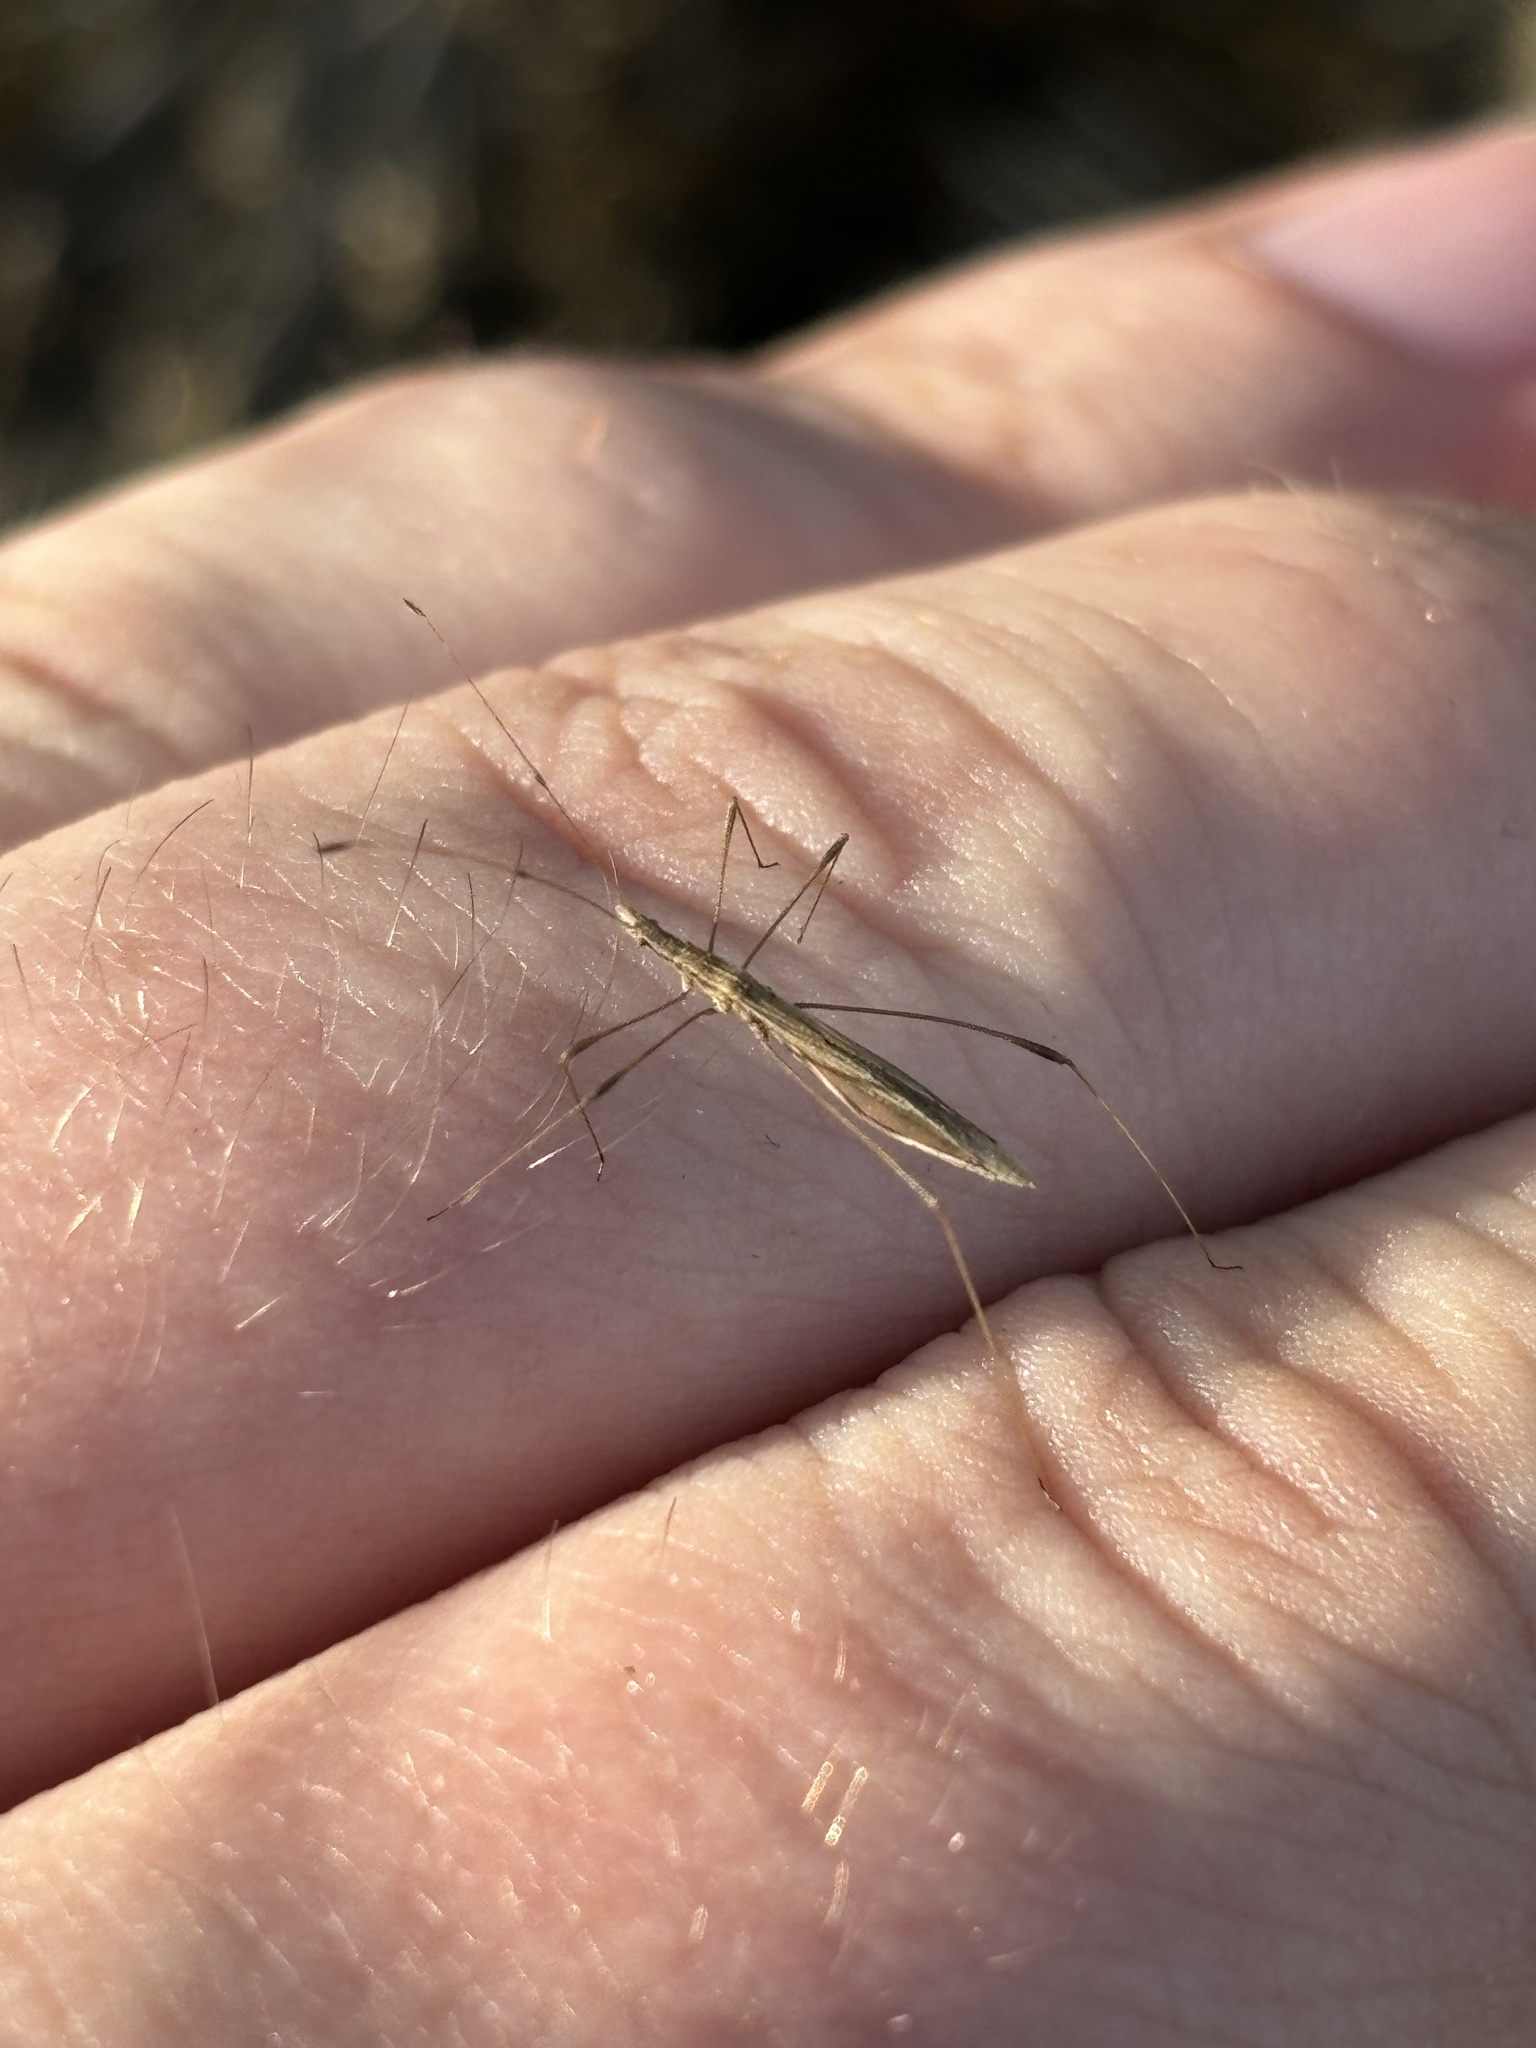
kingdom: Animalia
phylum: Arthropoda
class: Insecta
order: Hemiptera
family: Berytidae
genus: Neides
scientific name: Neides tipularius
